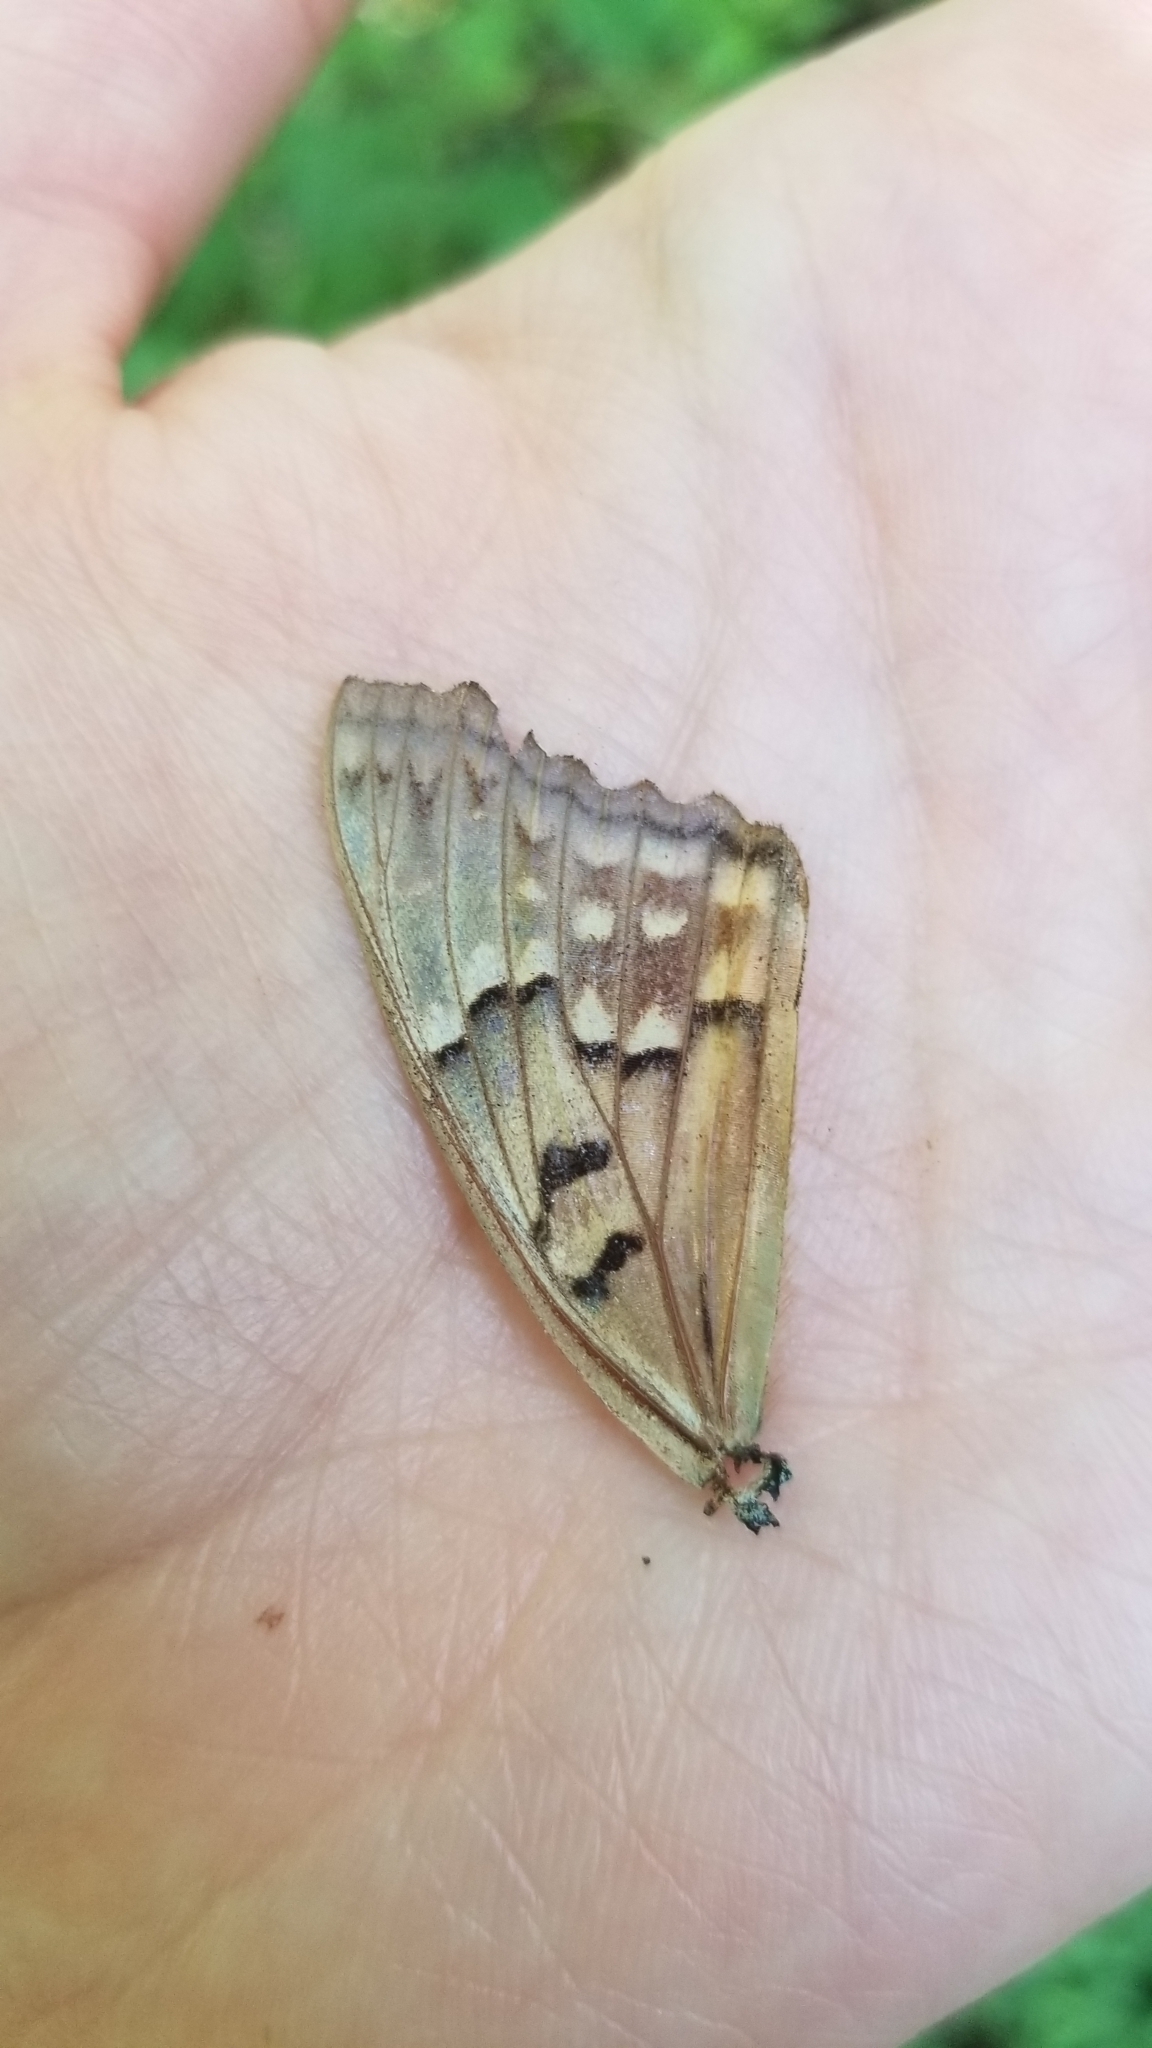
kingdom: Animalia
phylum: Arthropoda
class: Insecta
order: Lepidoptera
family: Nymphalidae
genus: Asterocampa
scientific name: Asterocampa clyton
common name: Tawny emperor
